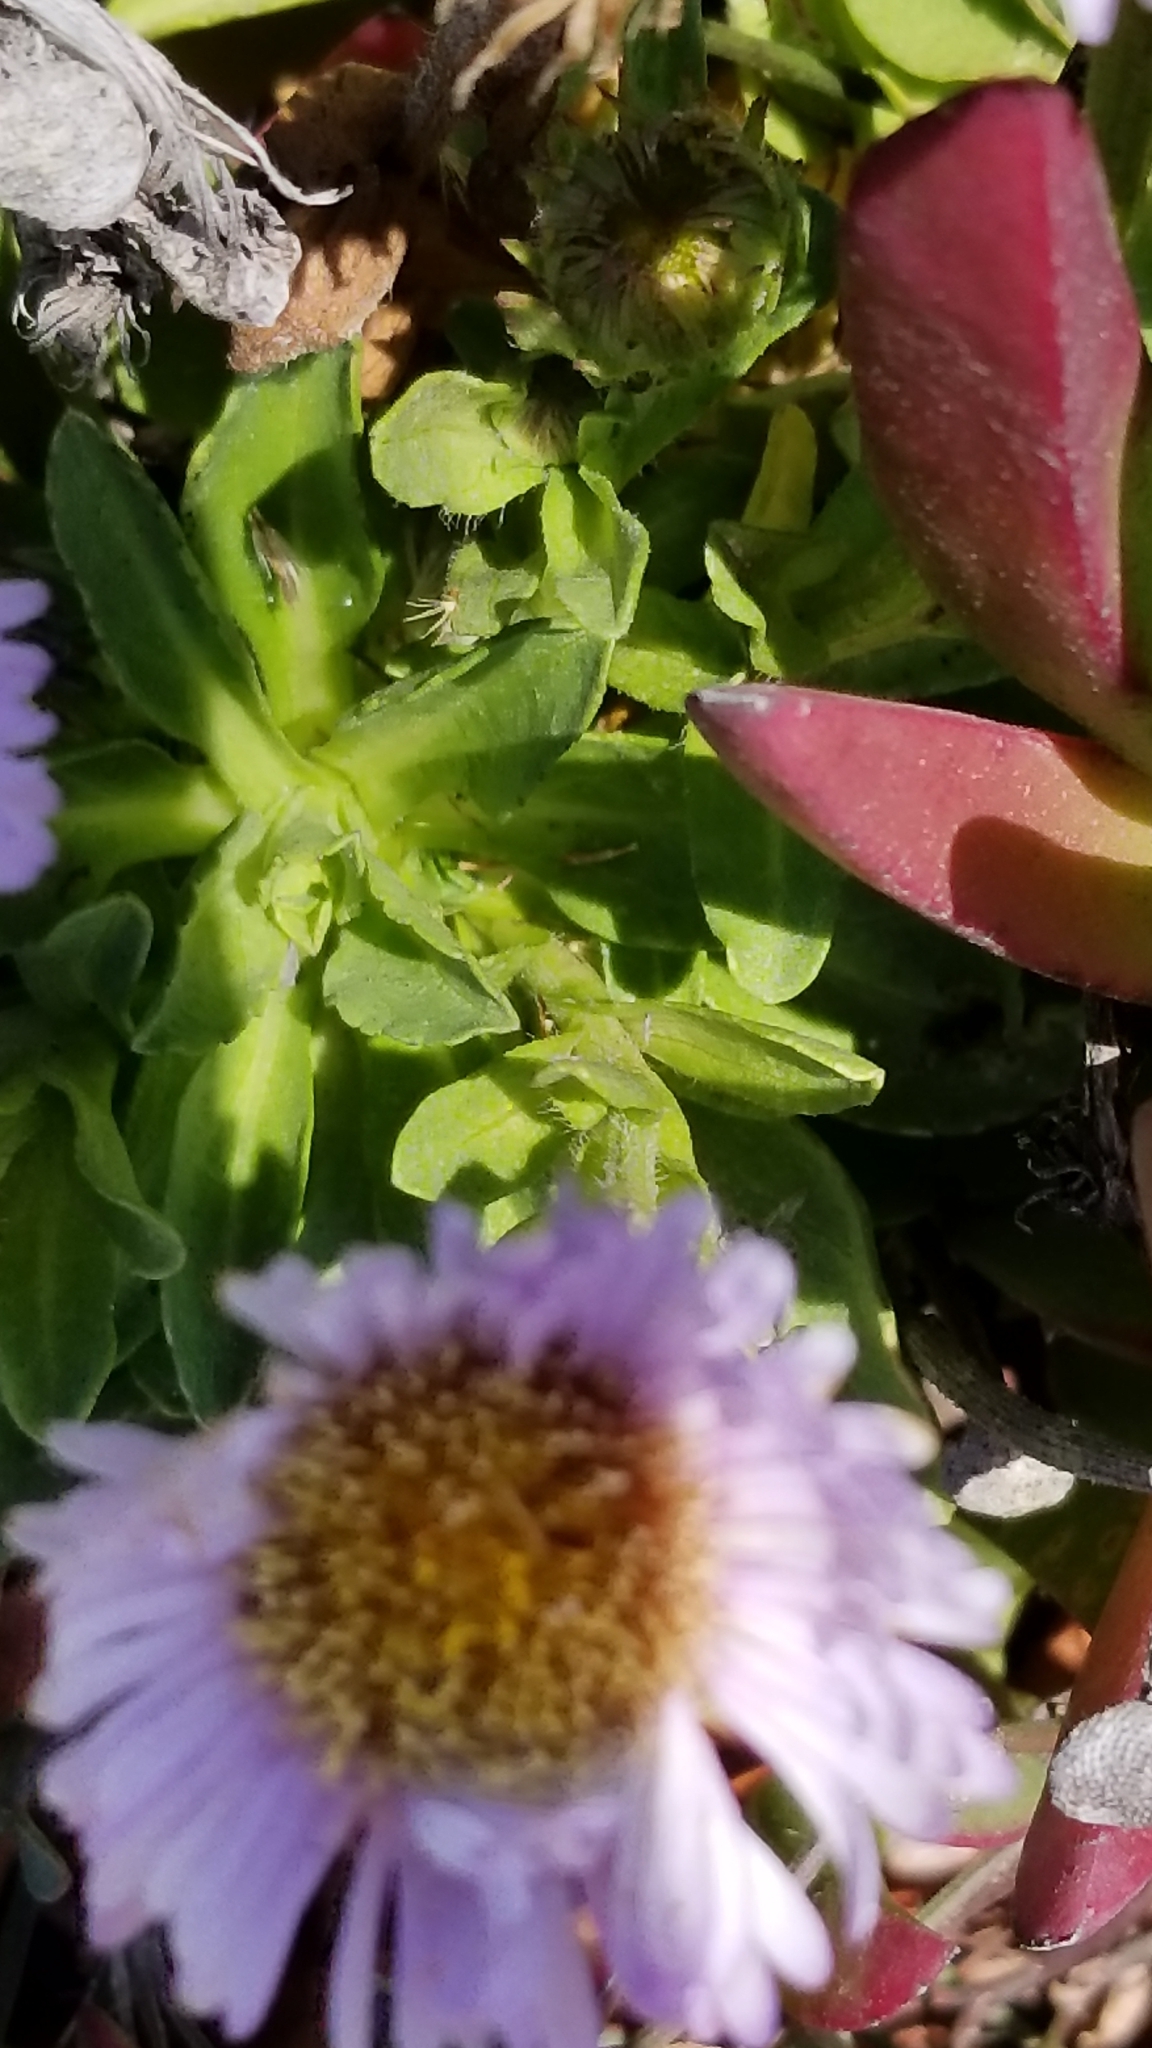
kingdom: Plantae
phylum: Tracheophyta
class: Magnoliopsida
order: Asterales
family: Asteraceae
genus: Erigeron
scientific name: Erigeron glaucus
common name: Seaside daisy
